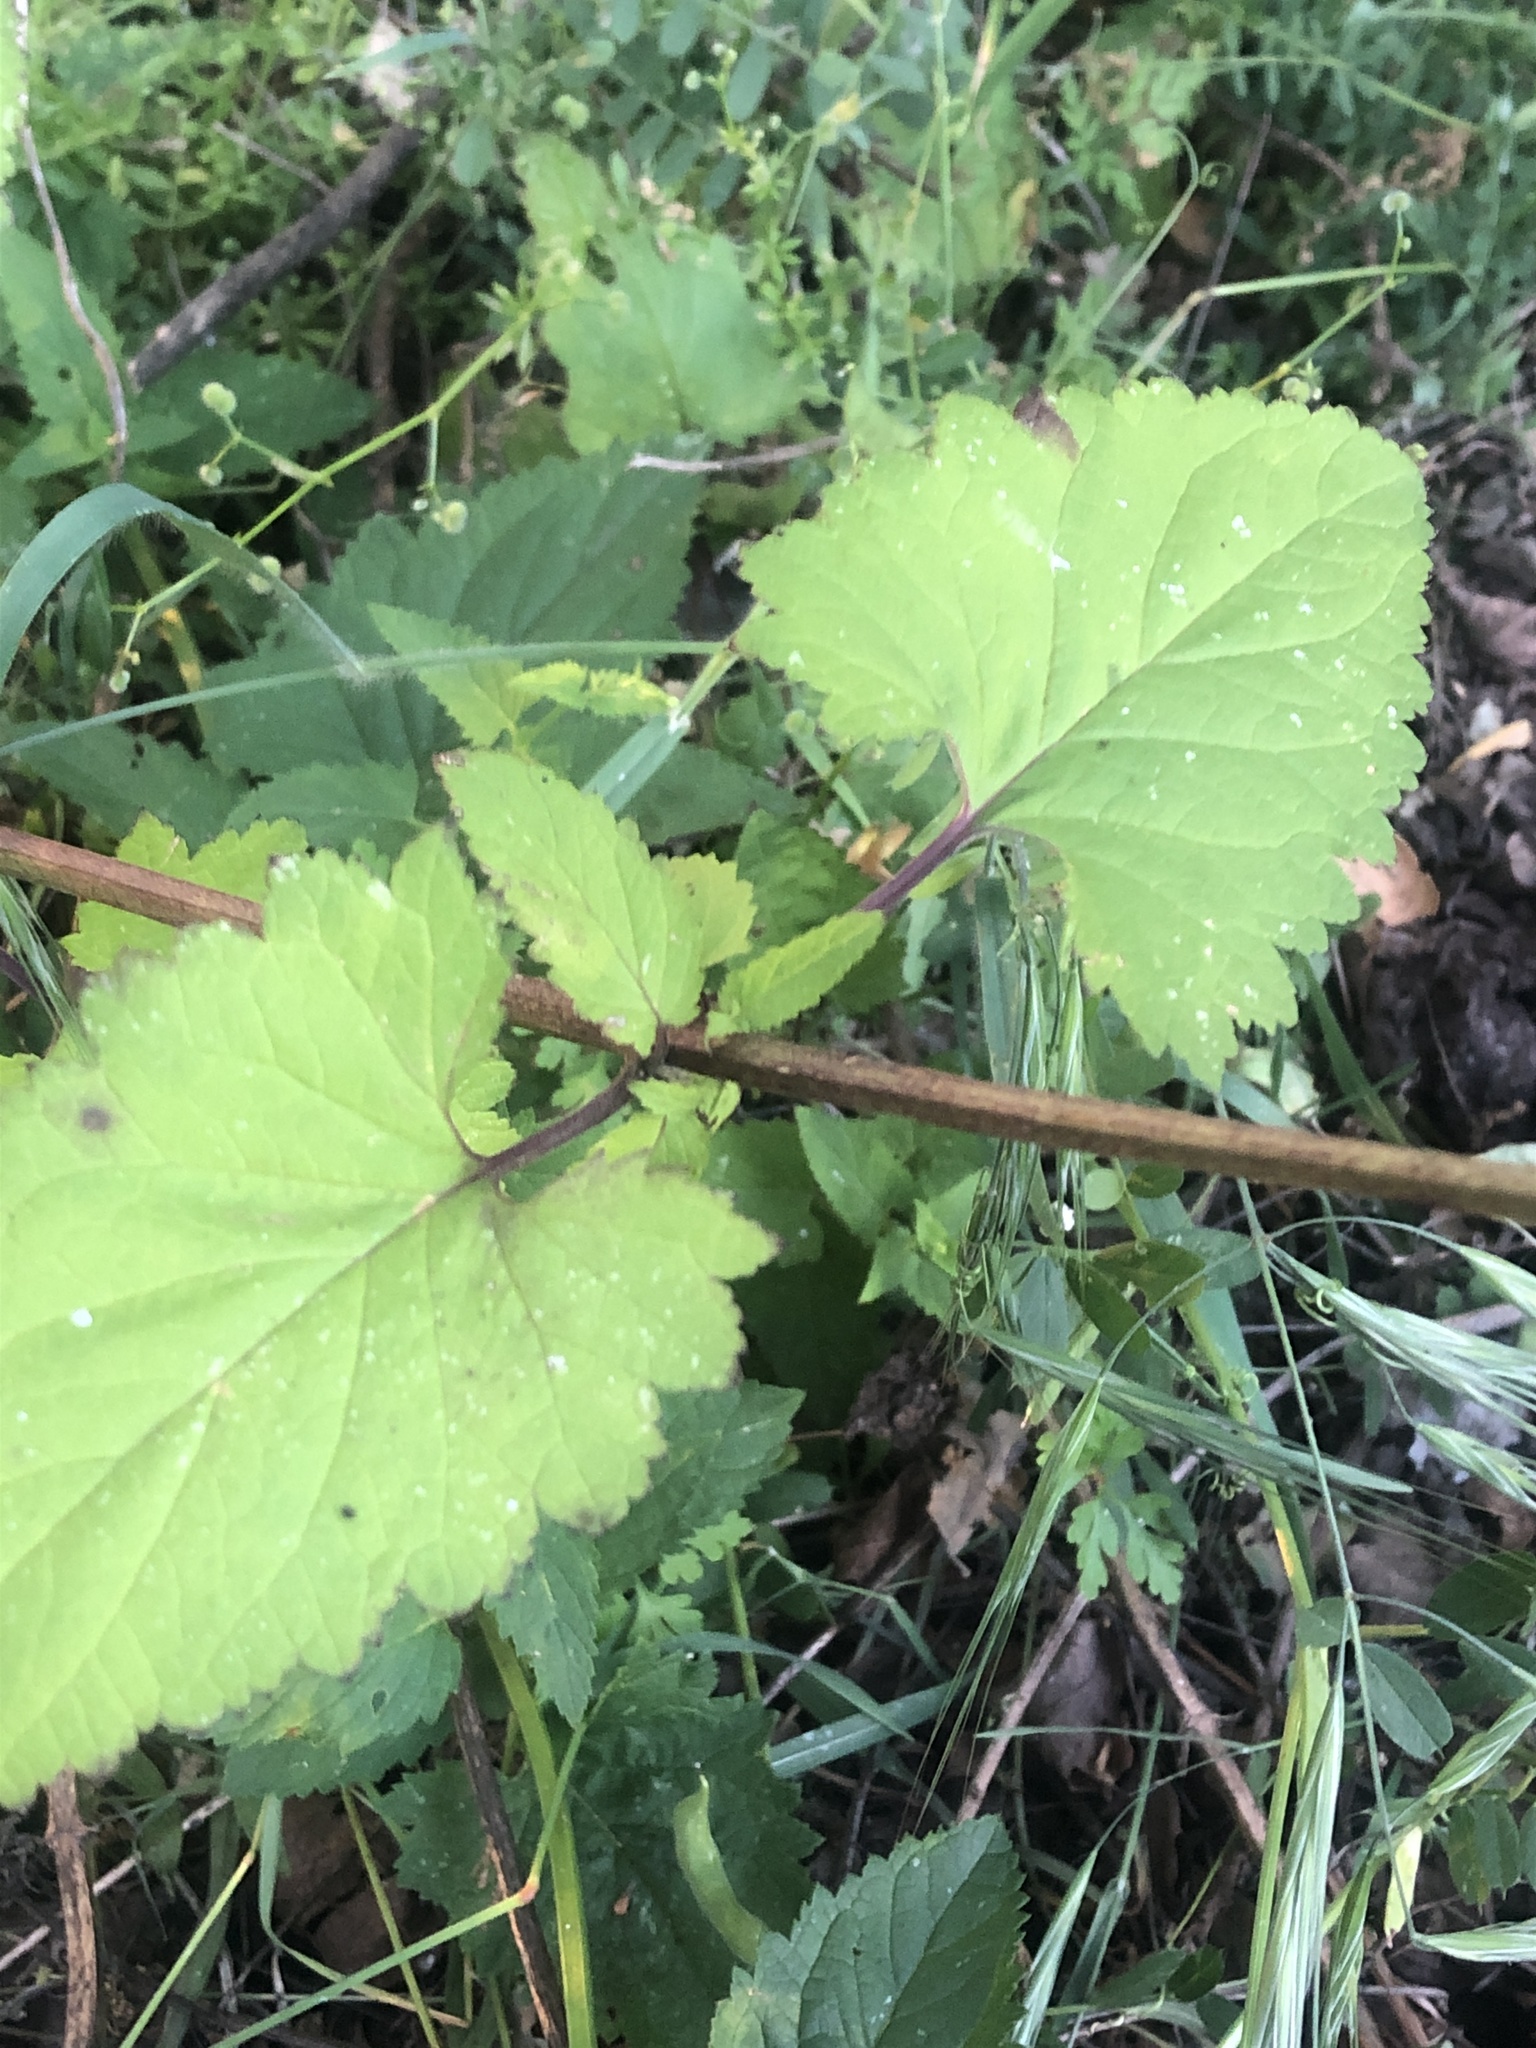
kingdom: Plantae
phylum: Tracheophyta
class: Magnoliopsida
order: Lamiales
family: Scrophulariaceae
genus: Scrophularia
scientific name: Scrophularia californica
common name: California figwort
